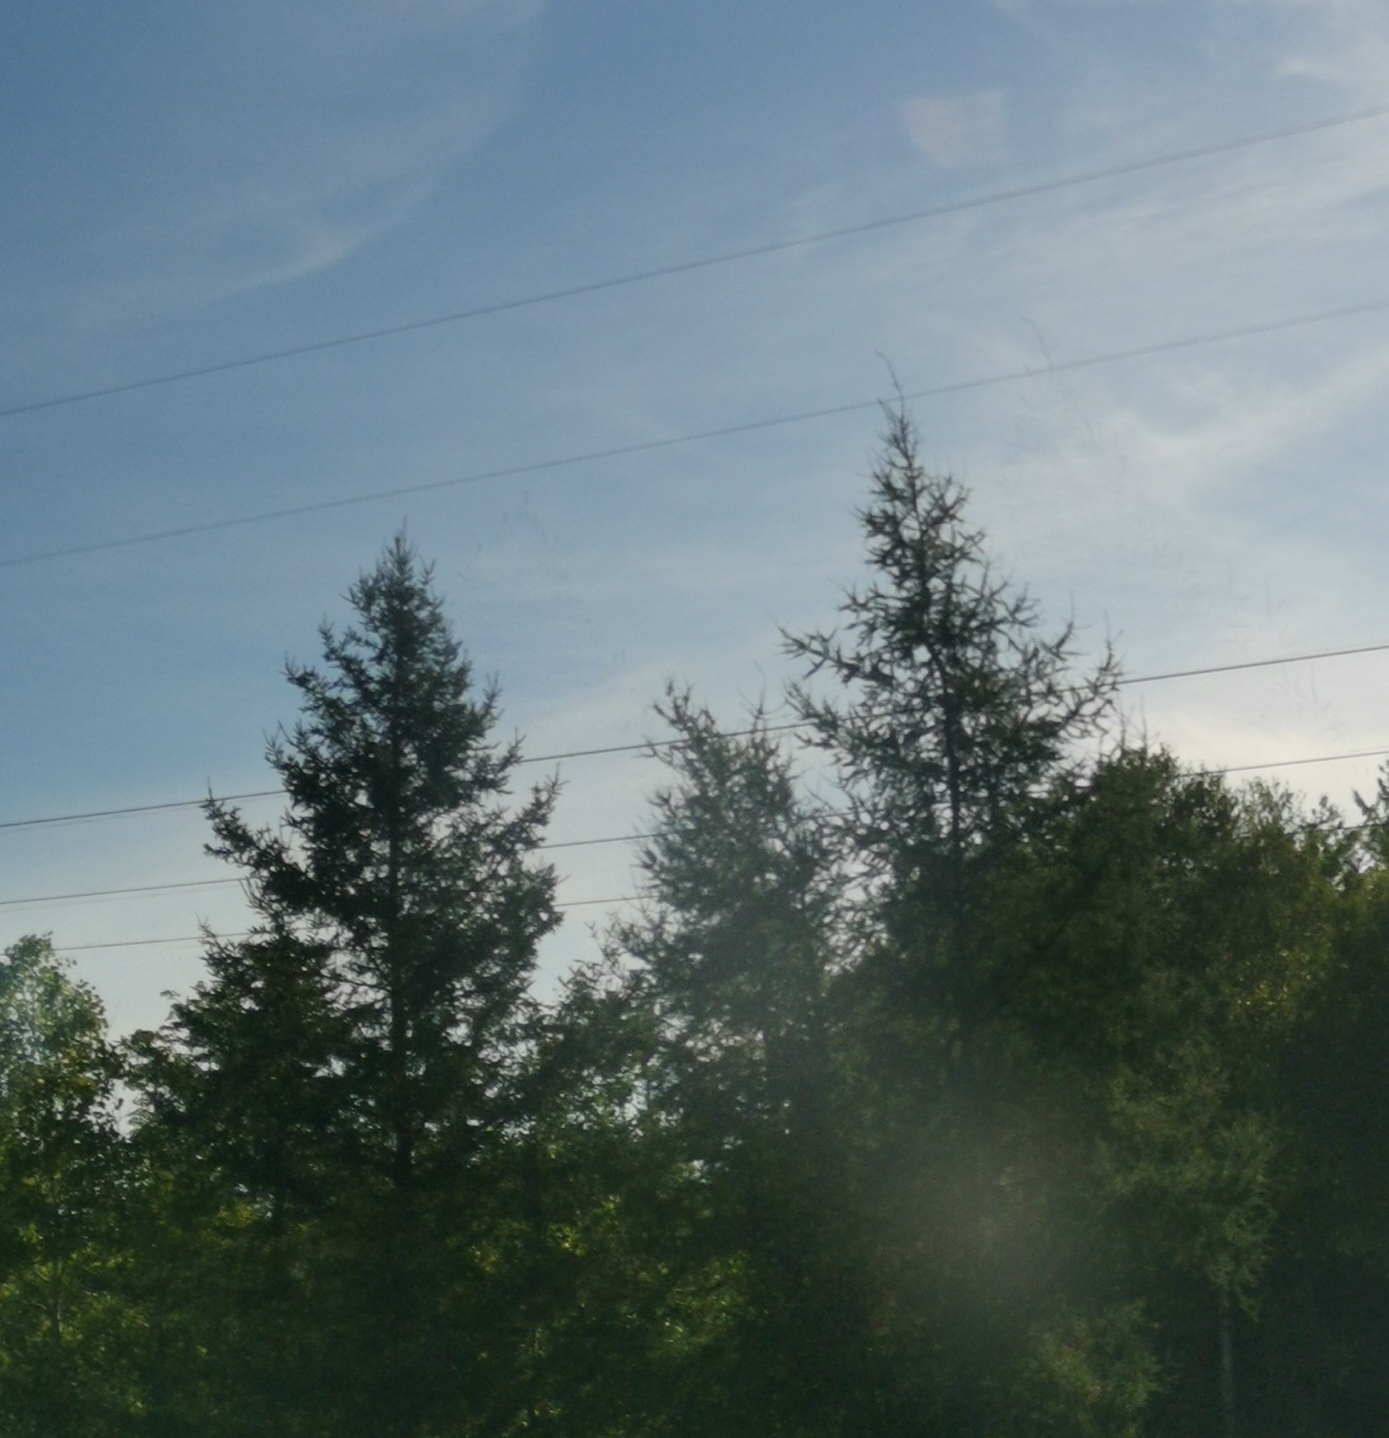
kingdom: Plantae
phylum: Tracheophyta
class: Pinopsida
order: Pinales
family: Pinaceae
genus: Larix
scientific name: Larix laricina
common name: American larch
